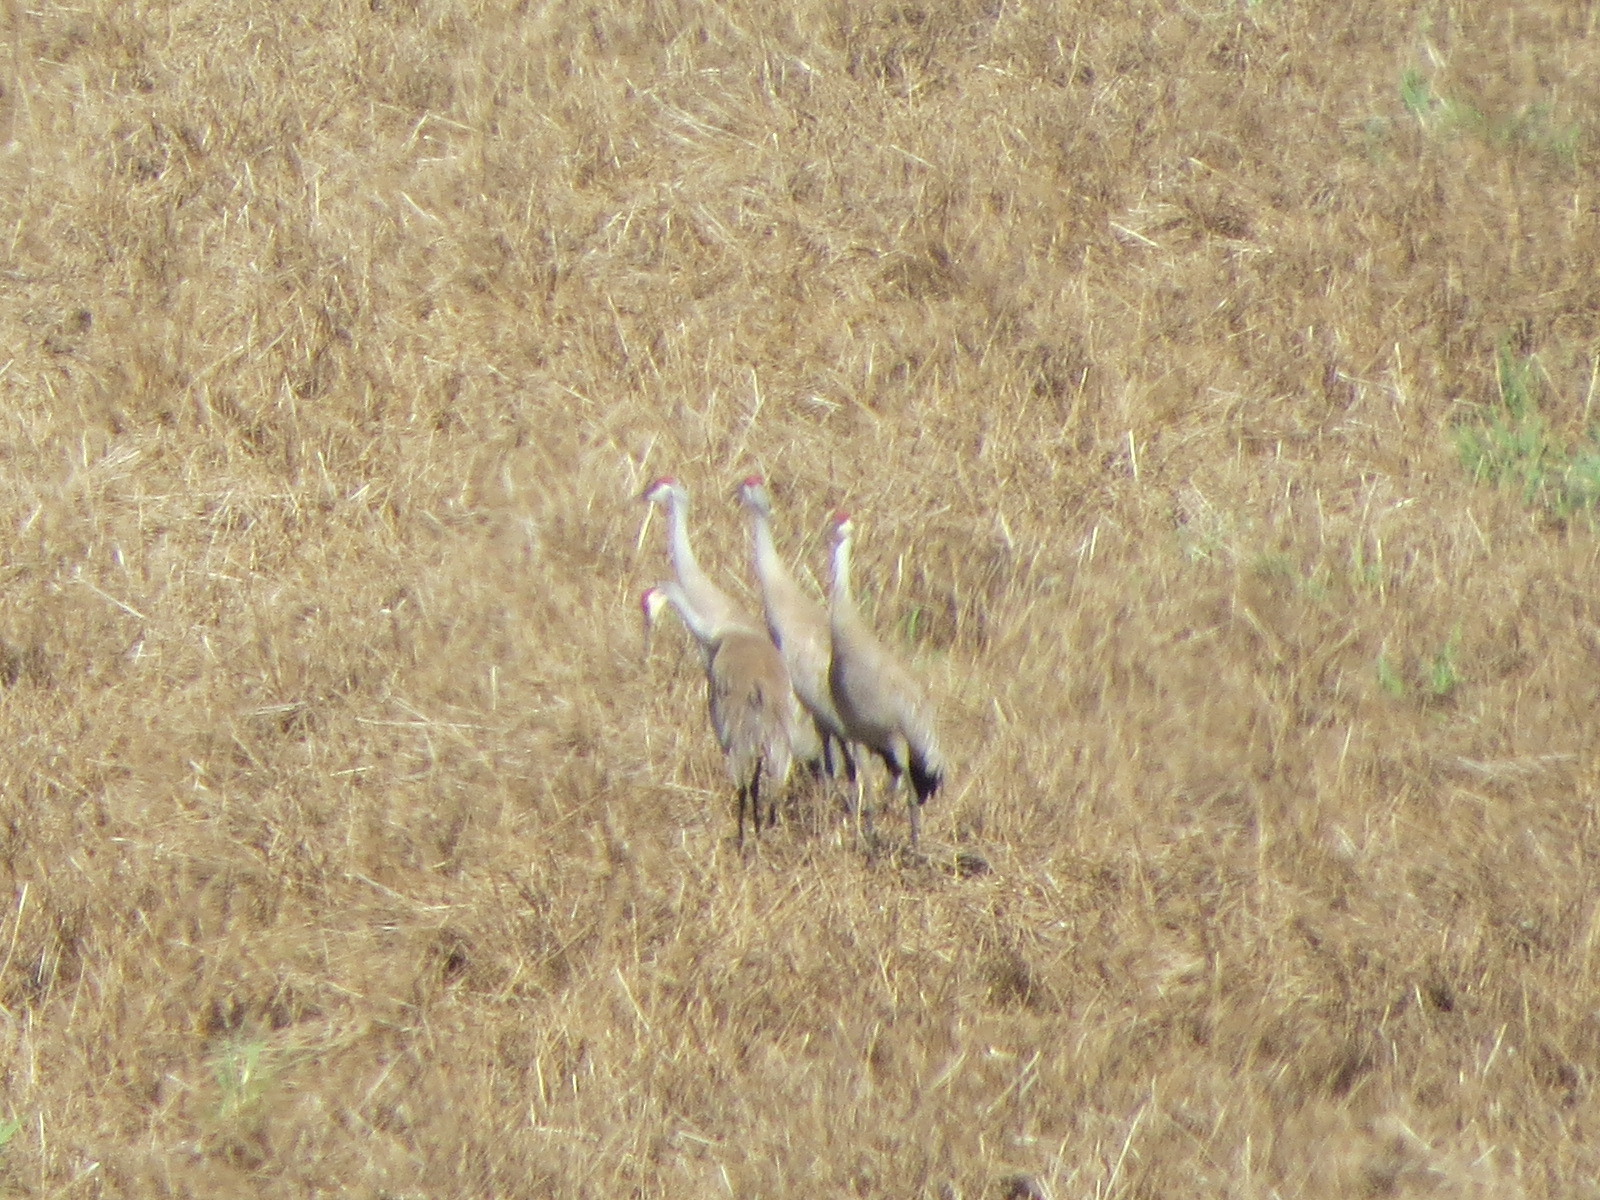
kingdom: Animalia
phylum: Chordata
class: Aves
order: Gruiformes
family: Gruidae
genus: Grus
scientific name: Grus canadensis
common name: Sandhill crane
